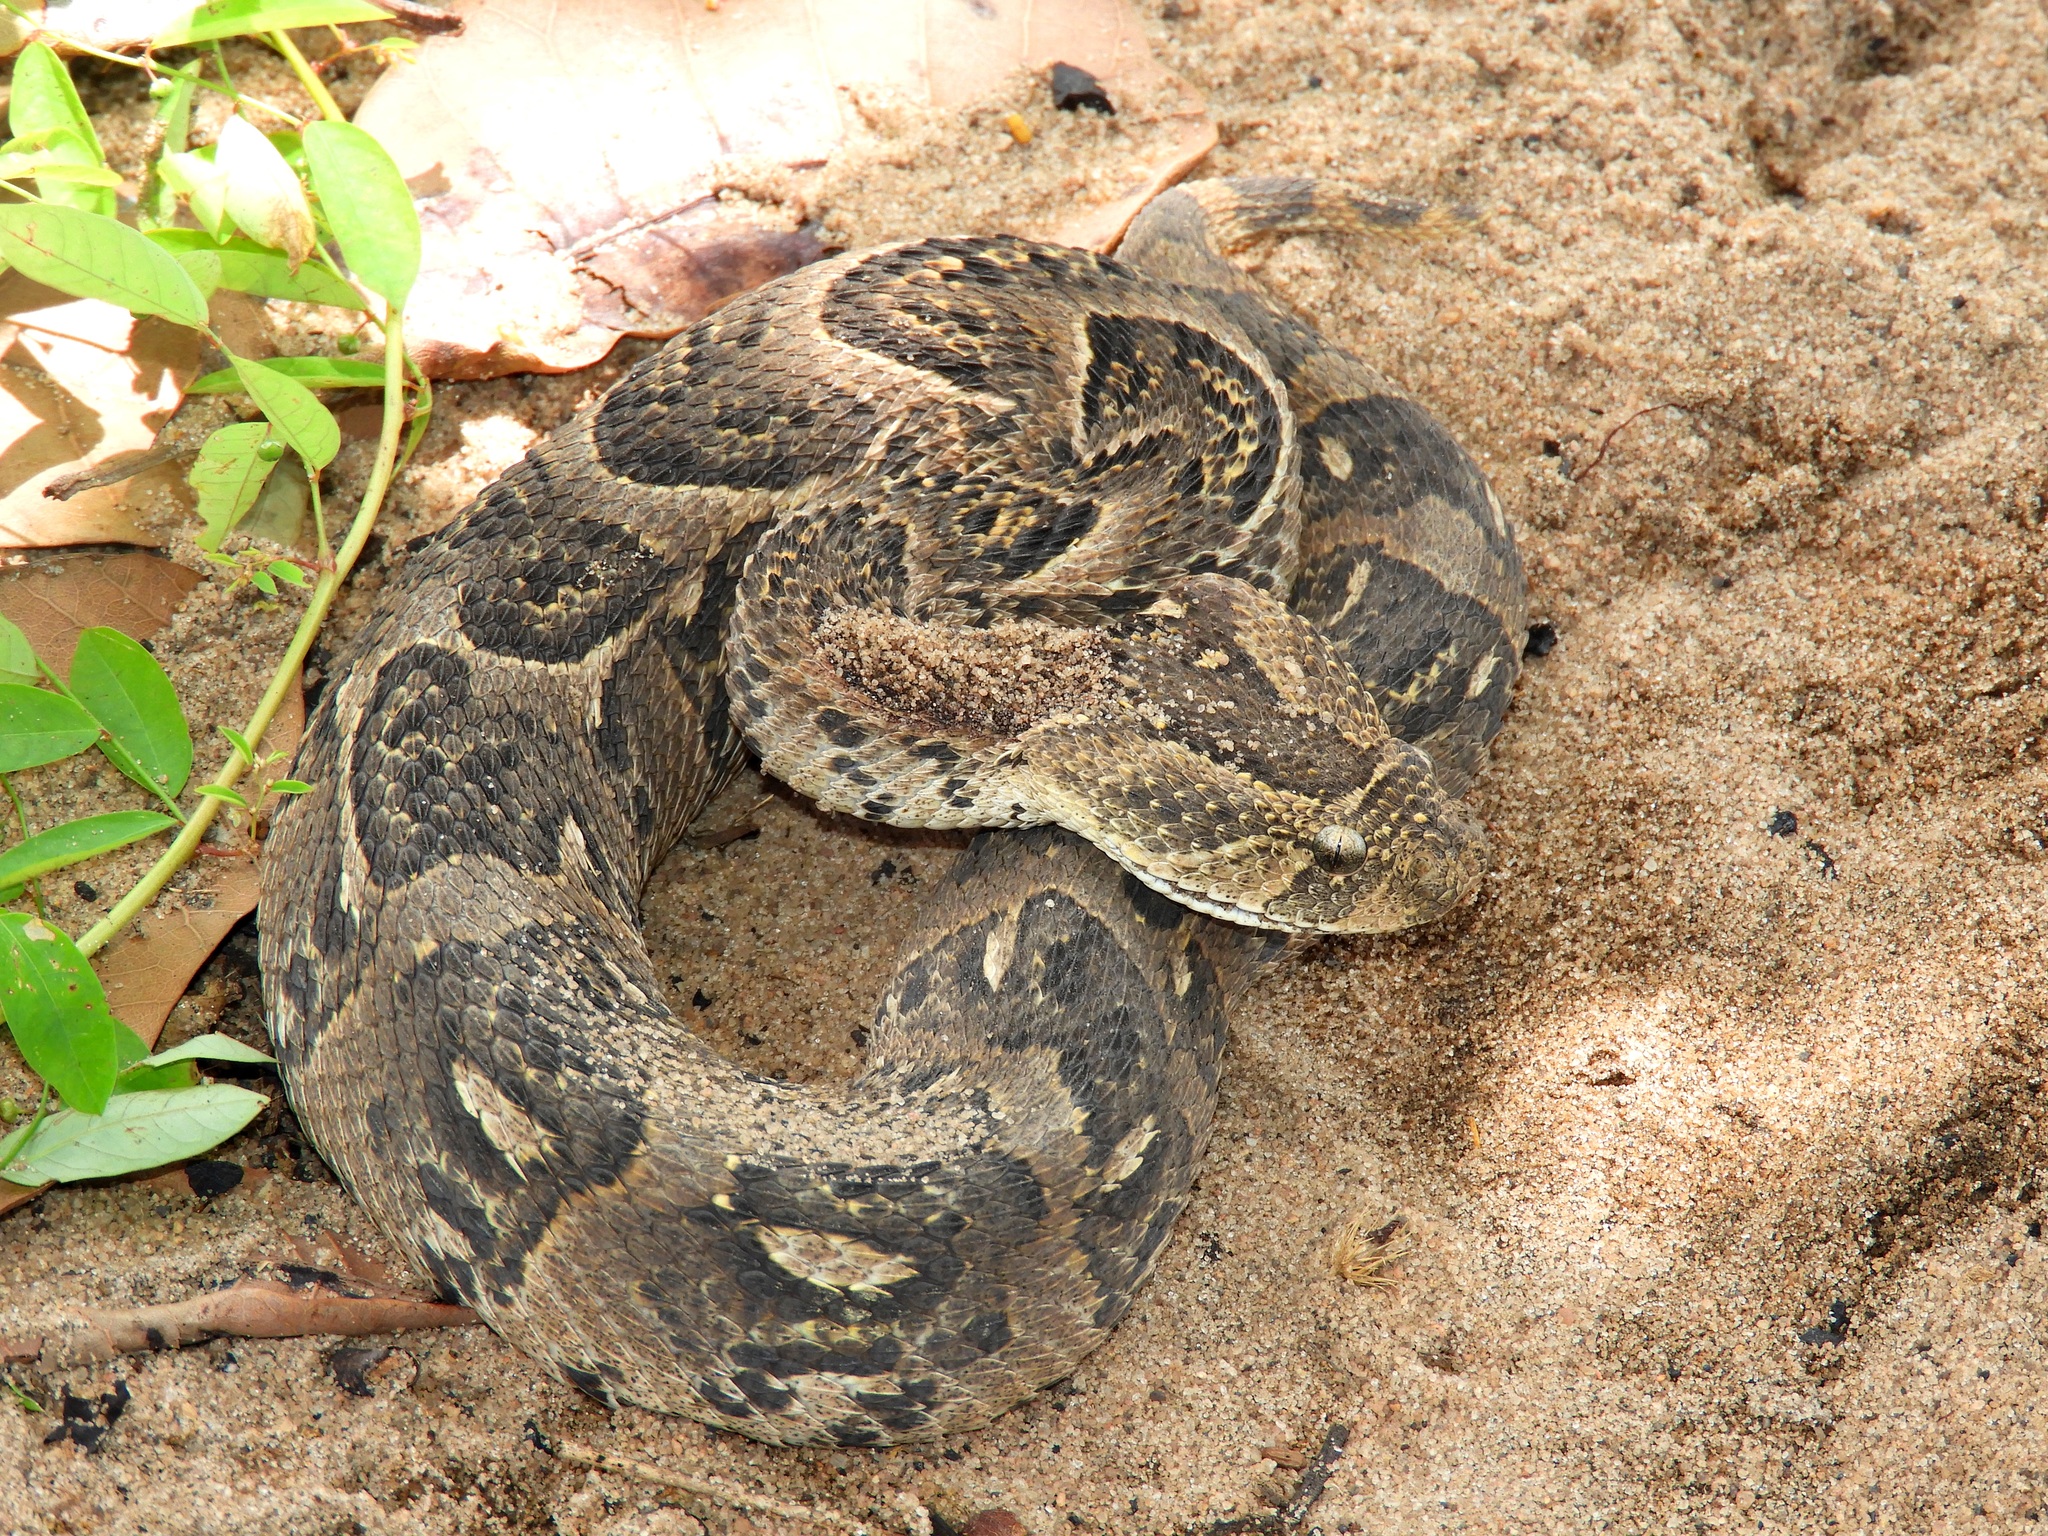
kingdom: Animalia
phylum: Chordata
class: Squamata
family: Viperidae
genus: Bitis
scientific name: Bitis arietans
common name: Puff adder
